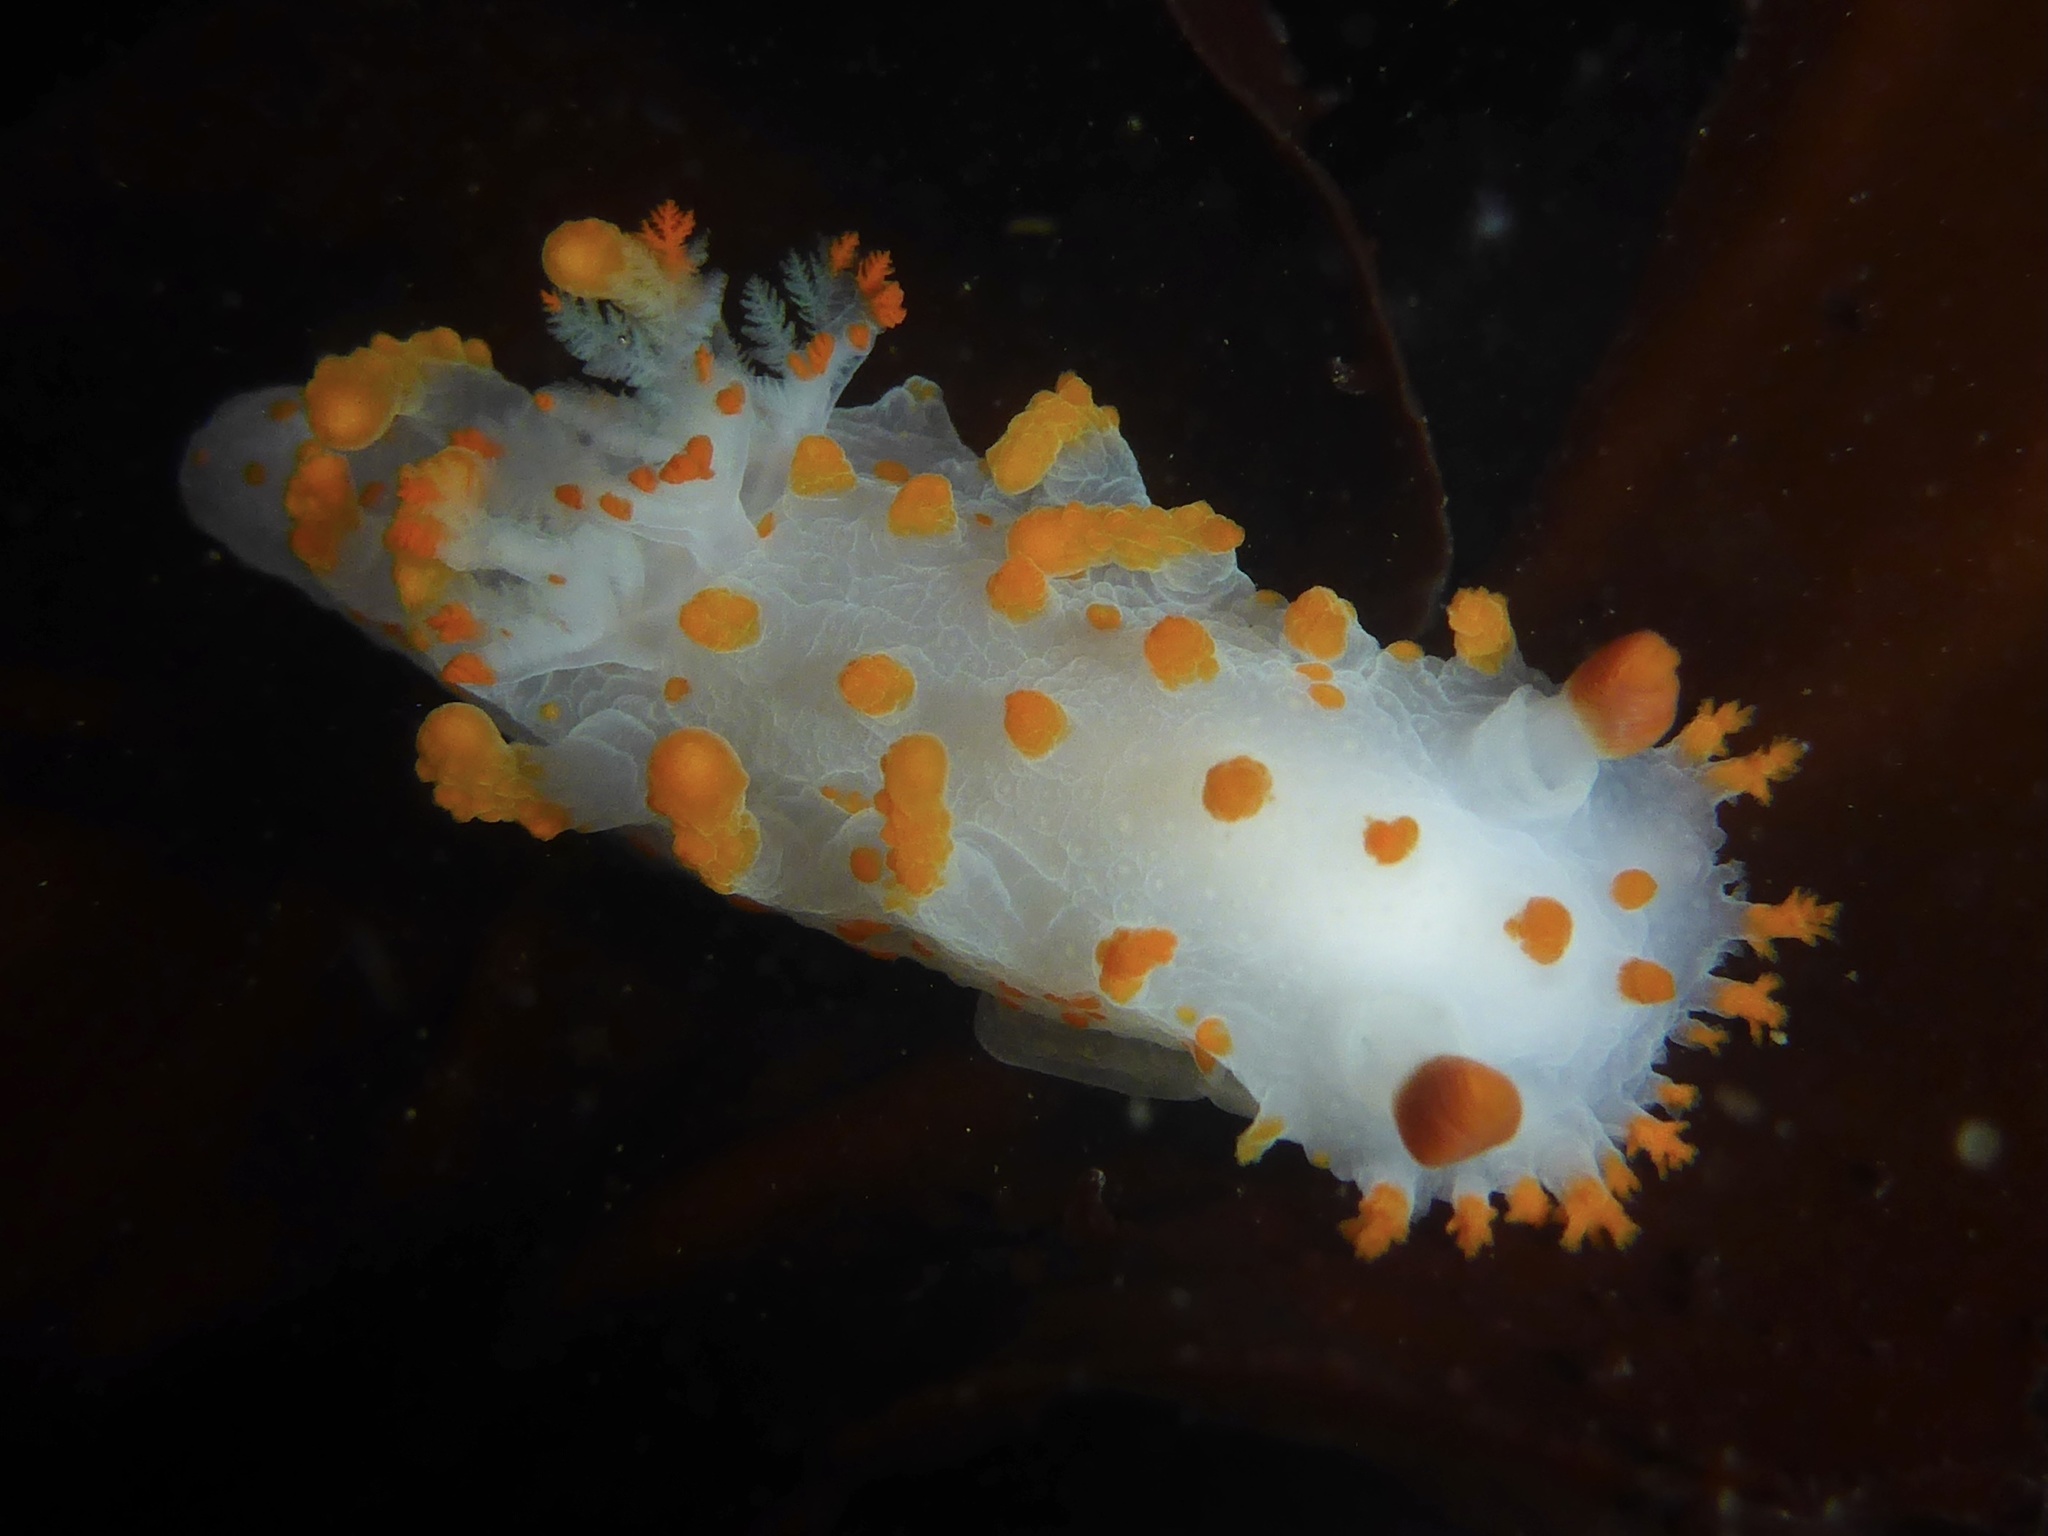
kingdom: Animalia
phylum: Mollusca
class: Gastropoda
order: Nudibranchia
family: Polyceridae
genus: Triopha
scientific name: Triopha catalinae
